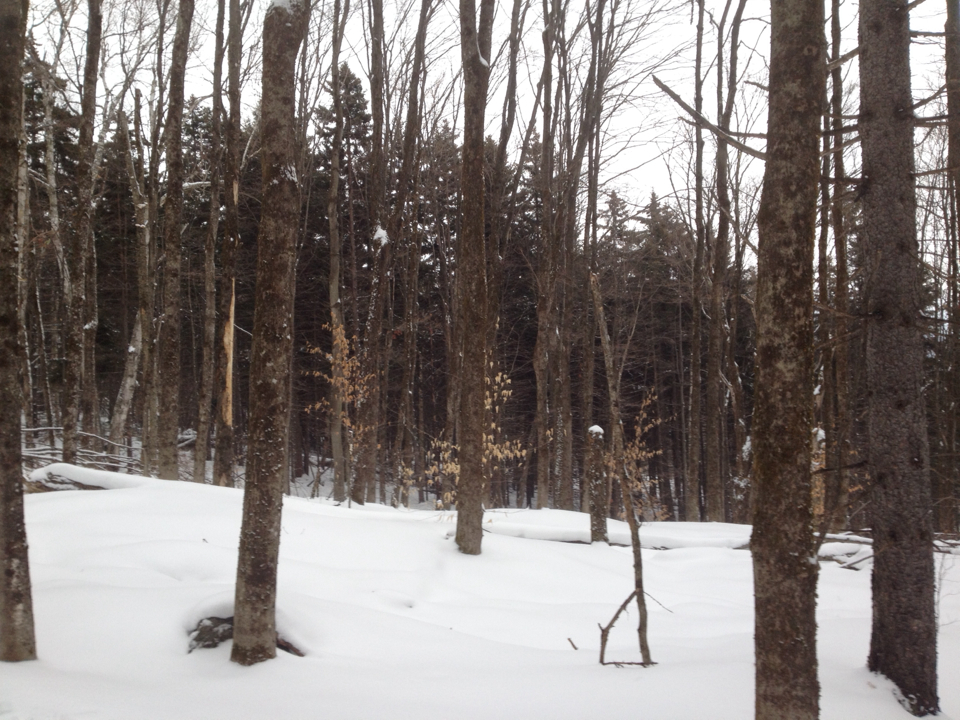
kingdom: Plantae
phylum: Tracheophyta
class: Magnoliopsida
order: Fagales
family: Fagaceae
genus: Fagus
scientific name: Fagus grandifolia
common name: American beech
